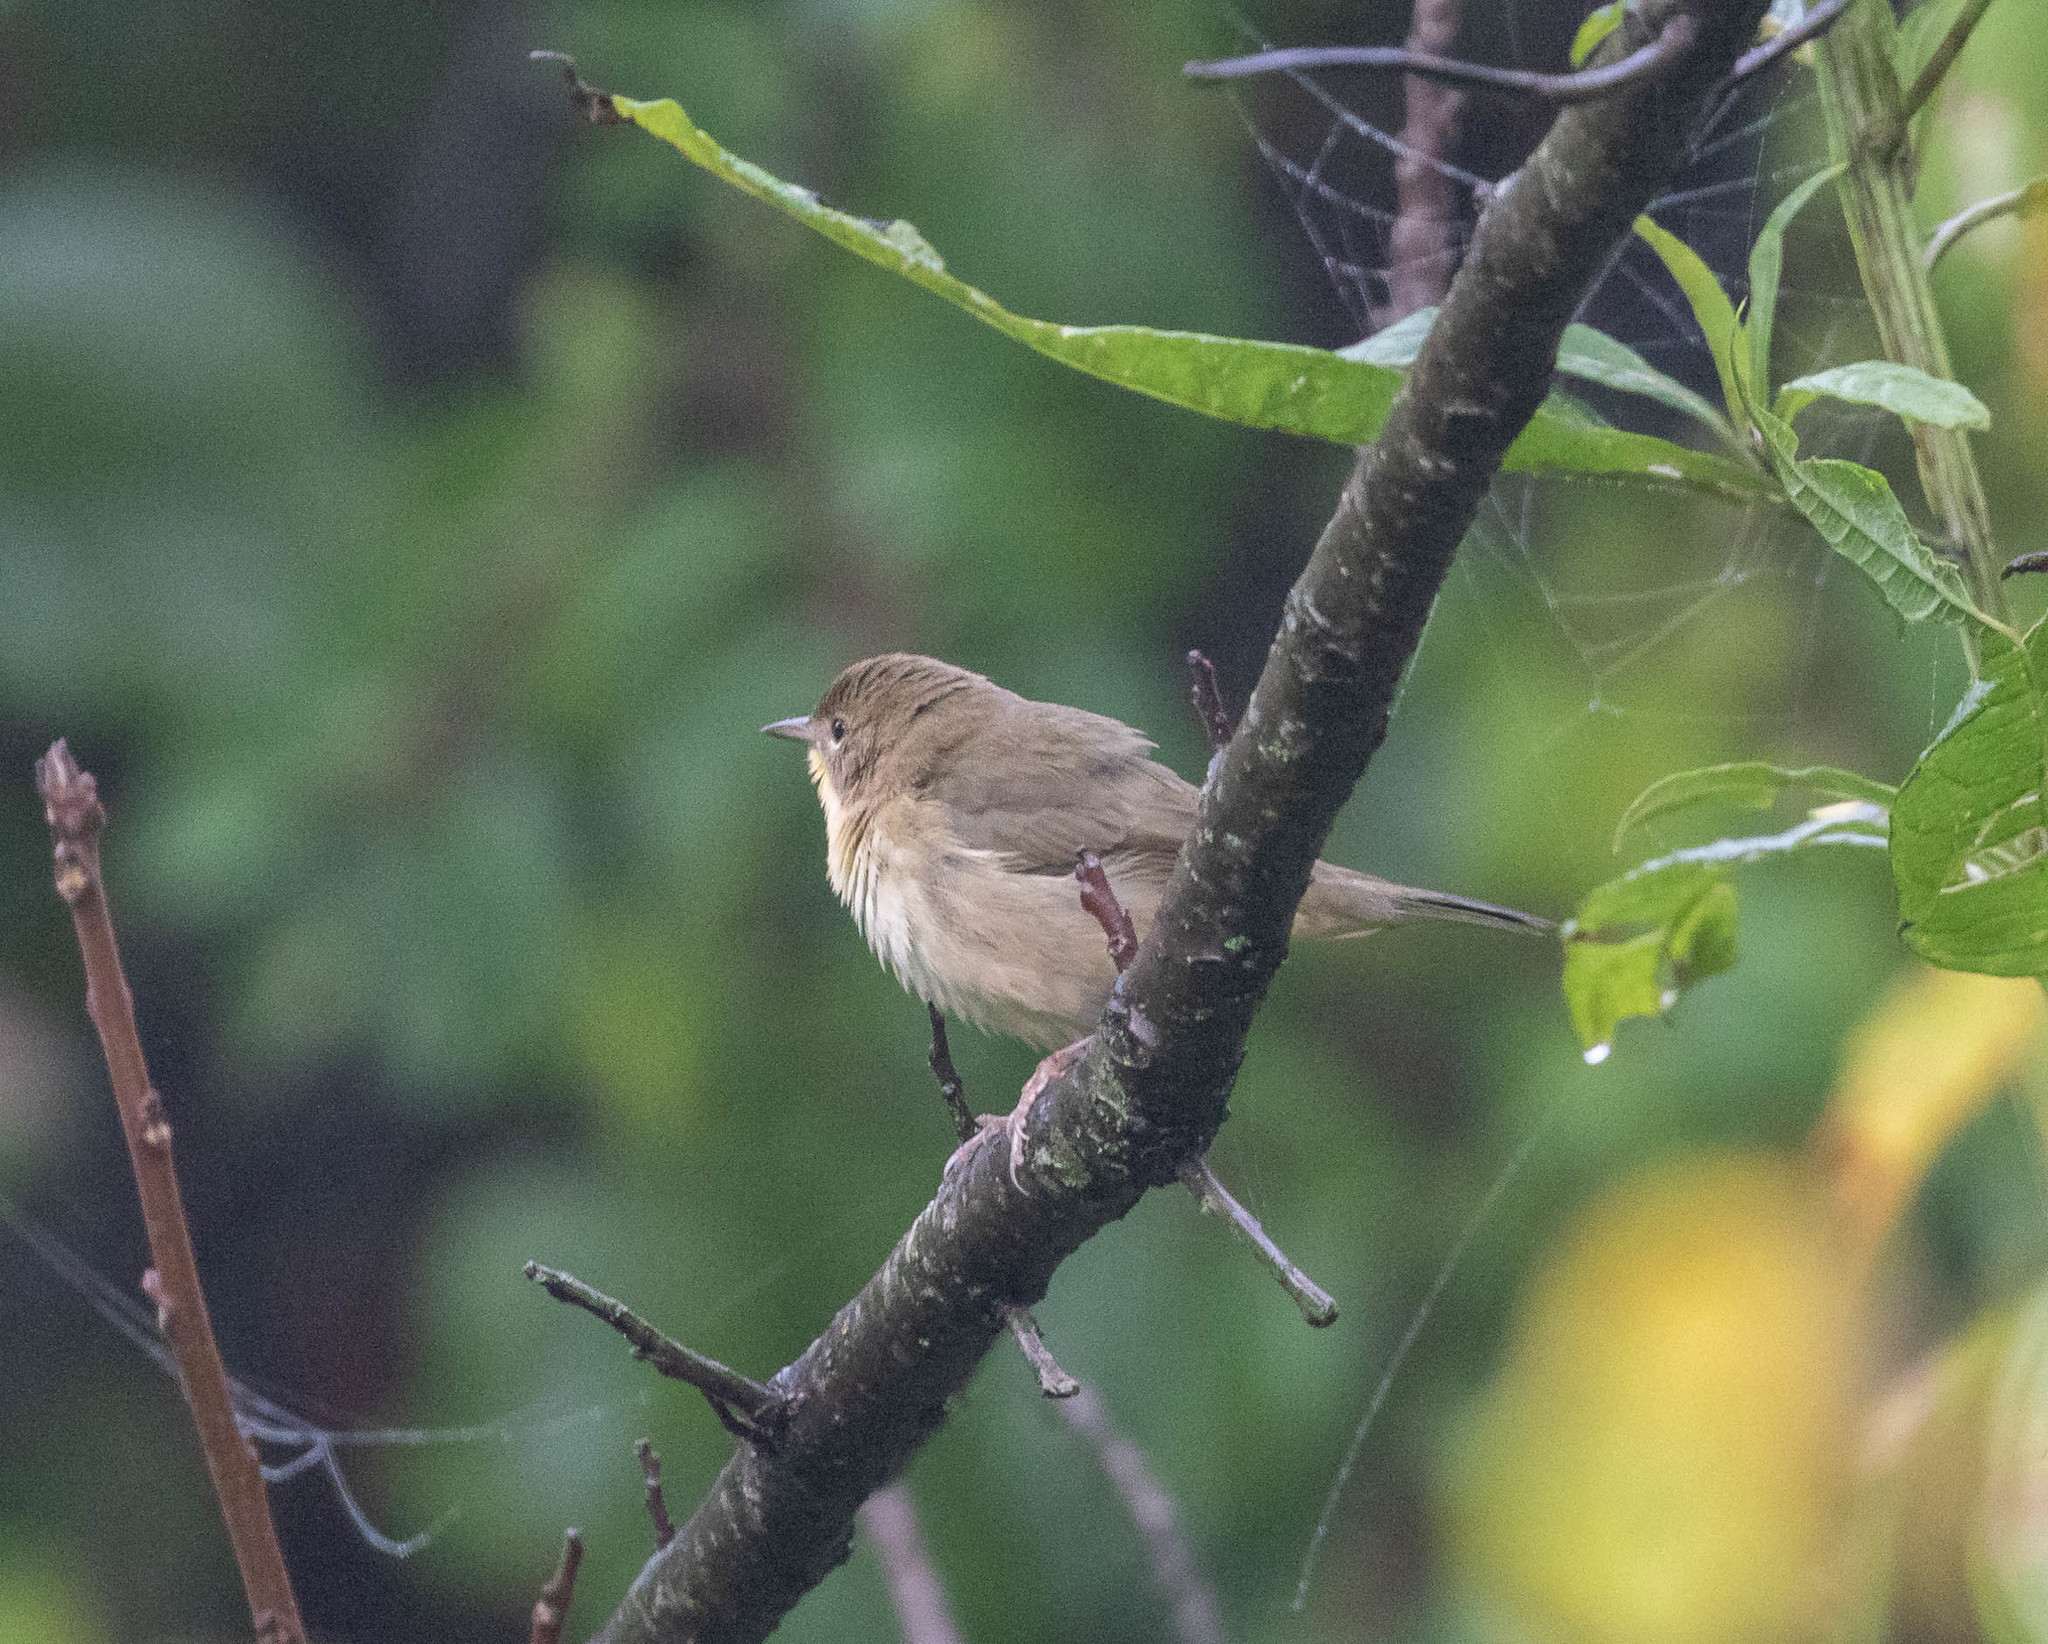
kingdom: Animalia
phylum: Chordata
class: Aves
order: Passeriformes
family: Parulidae
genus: Geothlypis
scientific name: Geothlypis trichas
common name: Common yellowthroat
